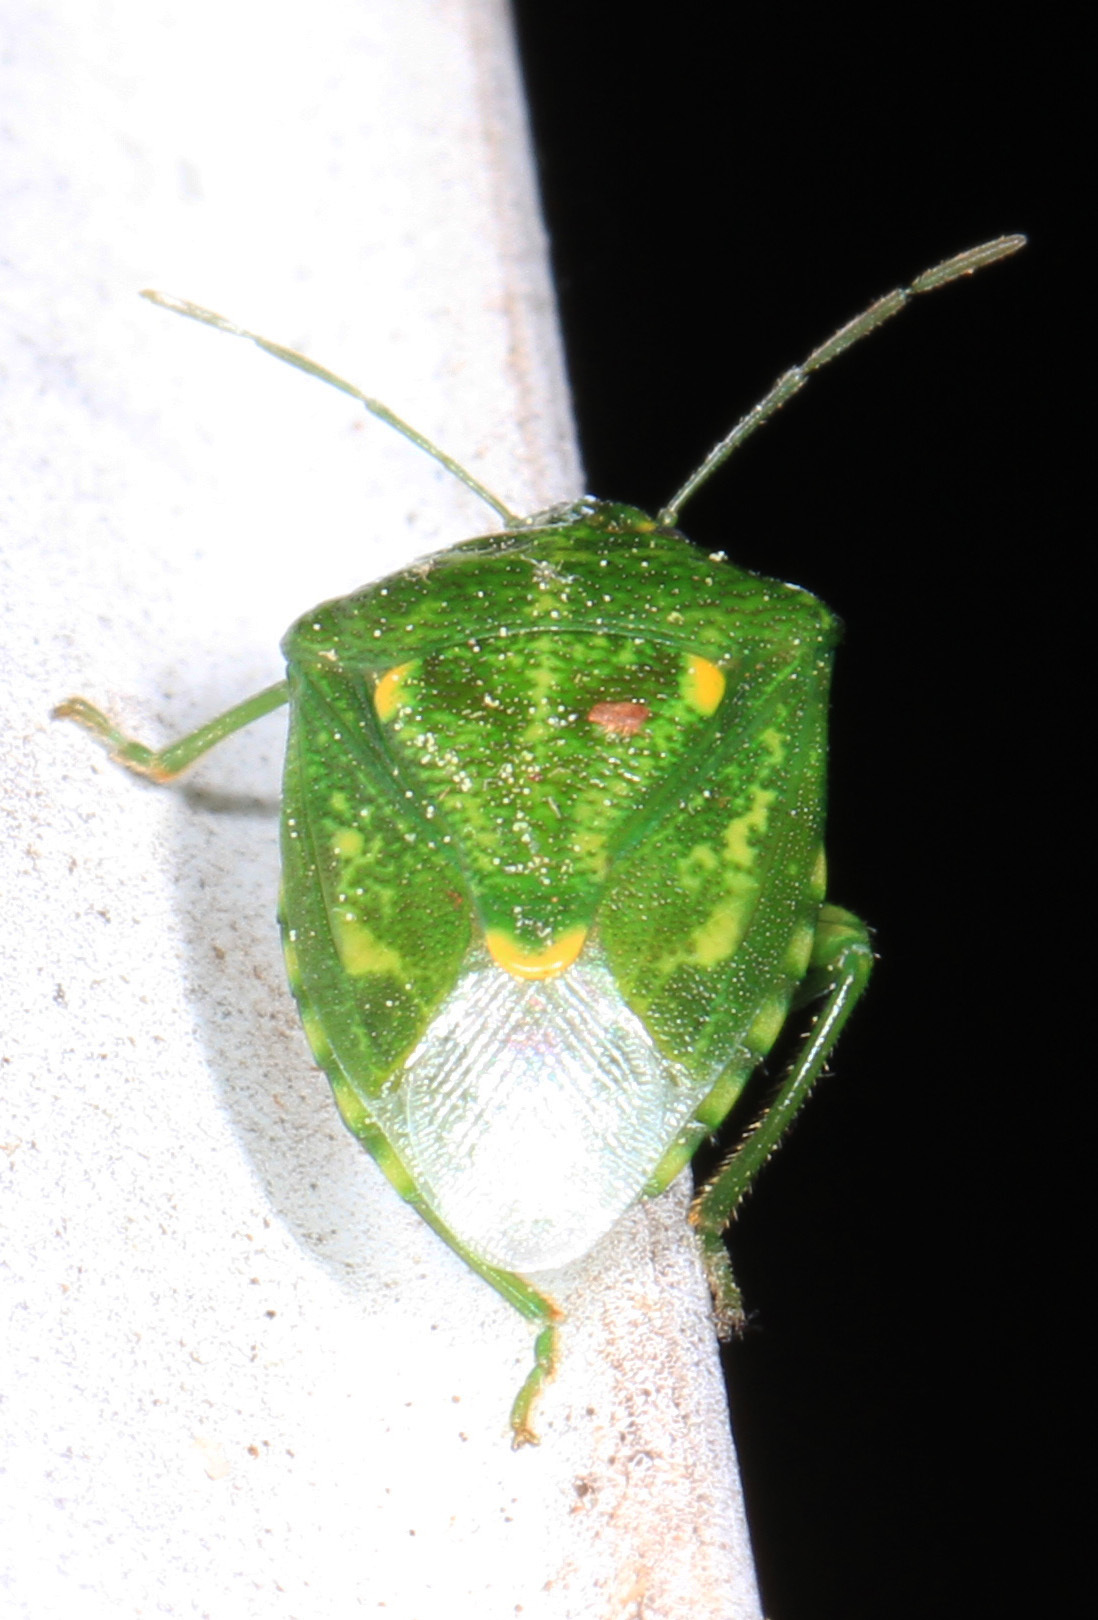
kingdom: Animalia
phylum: Arthropoda
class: Insecta
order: Hemiptera
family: Pentatomidae
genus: Banasa
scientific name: Banasa euchlora
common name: Cedar berry bug
